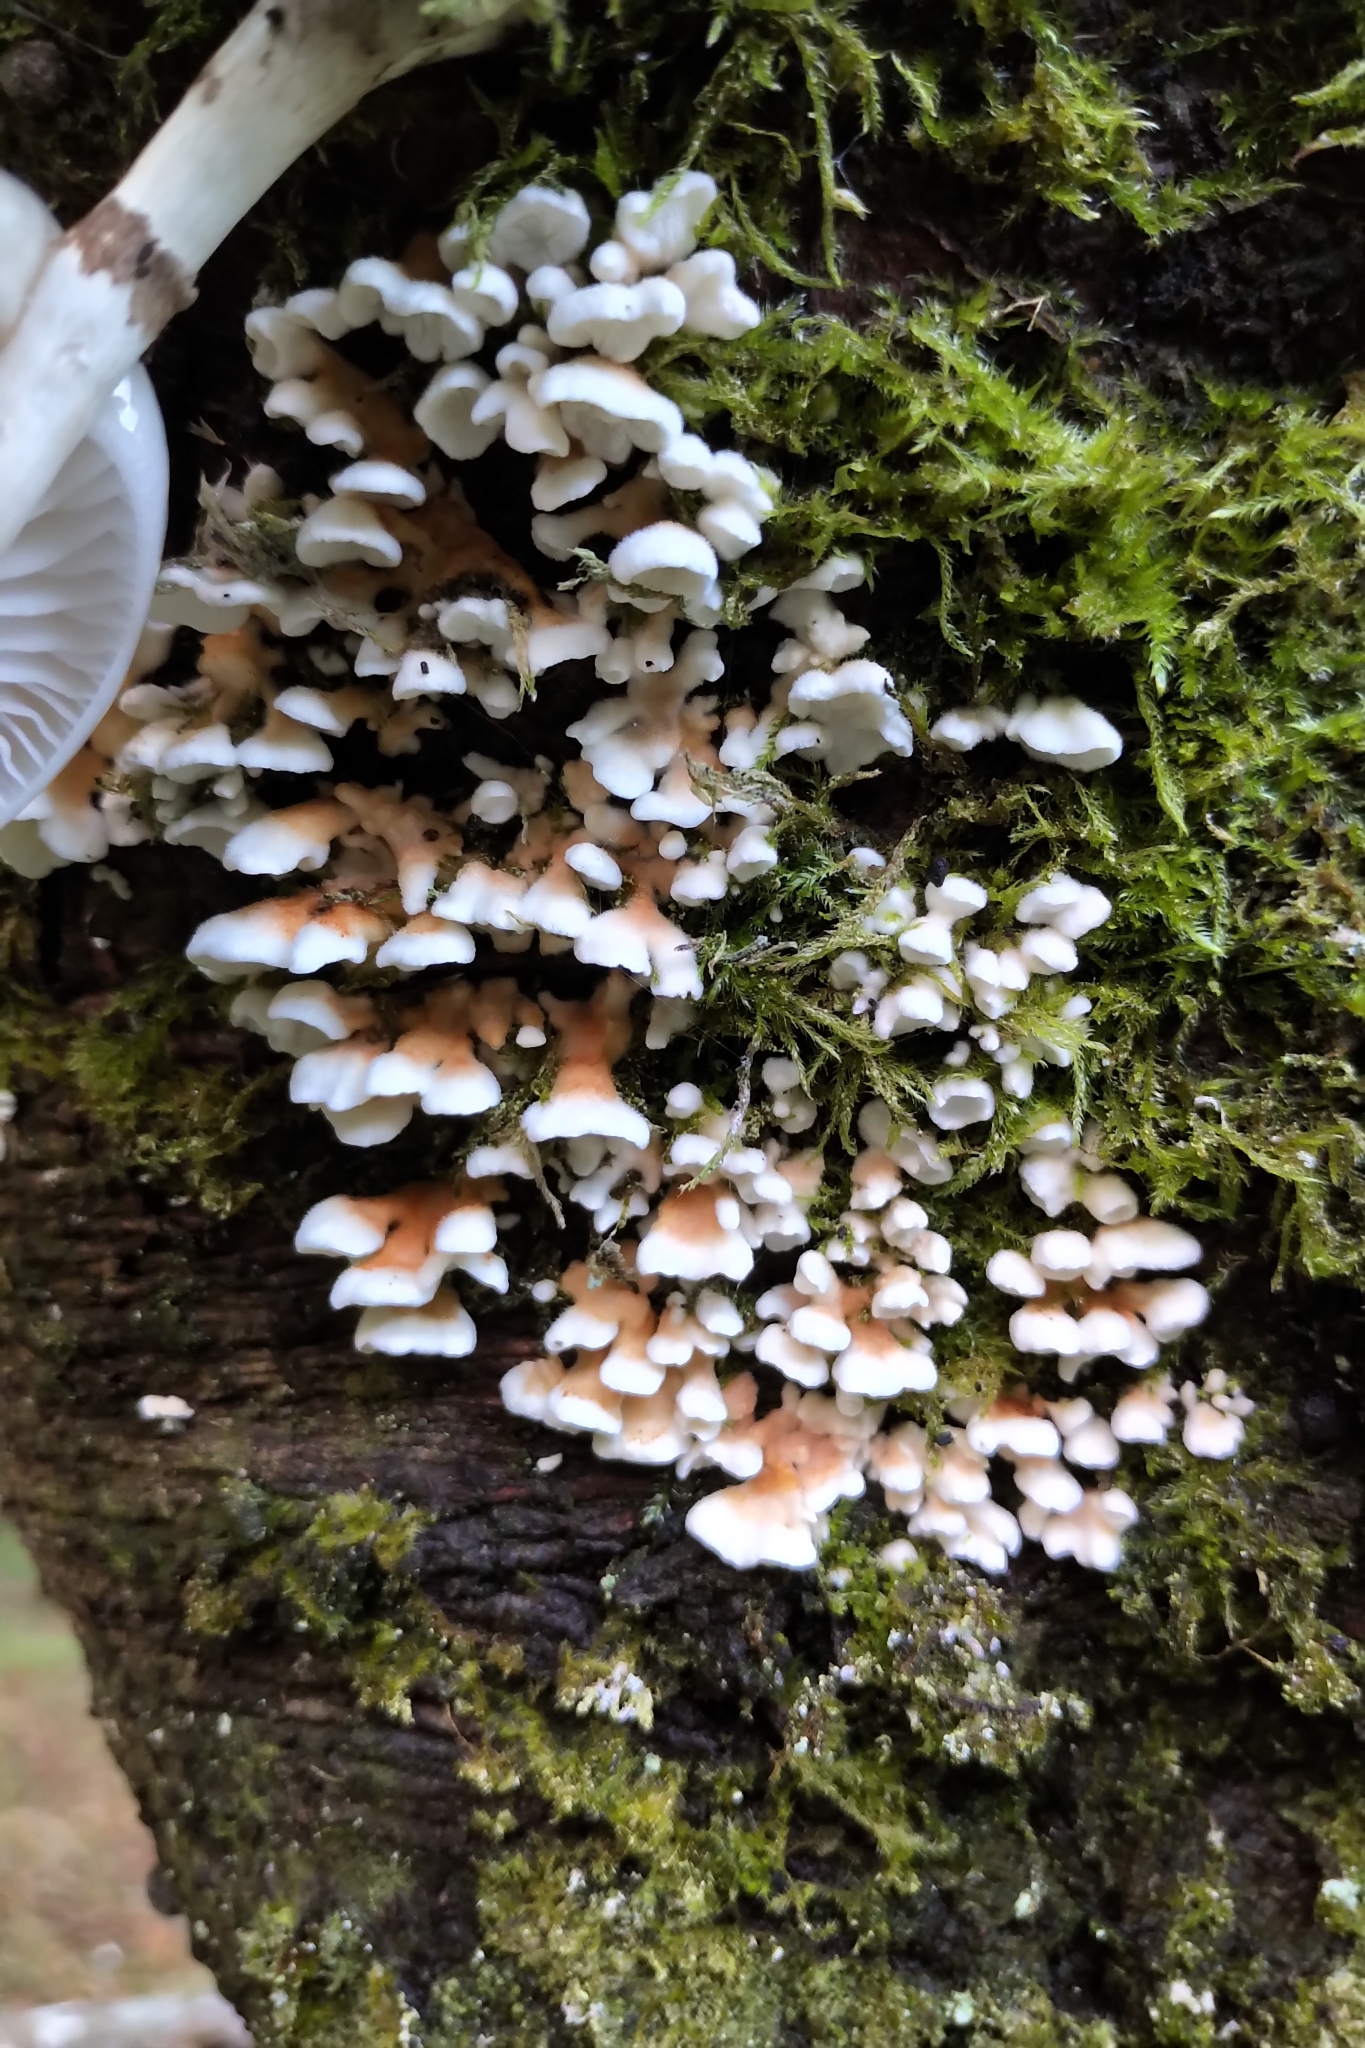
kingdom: Fungi
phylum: Basidiomycota
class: Agaricomycetes
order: Amylocorticiales
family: Amylocorticiaceae
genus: Plicaturopsis
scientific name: Plicaturopsis crispa
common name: Crimped gill
